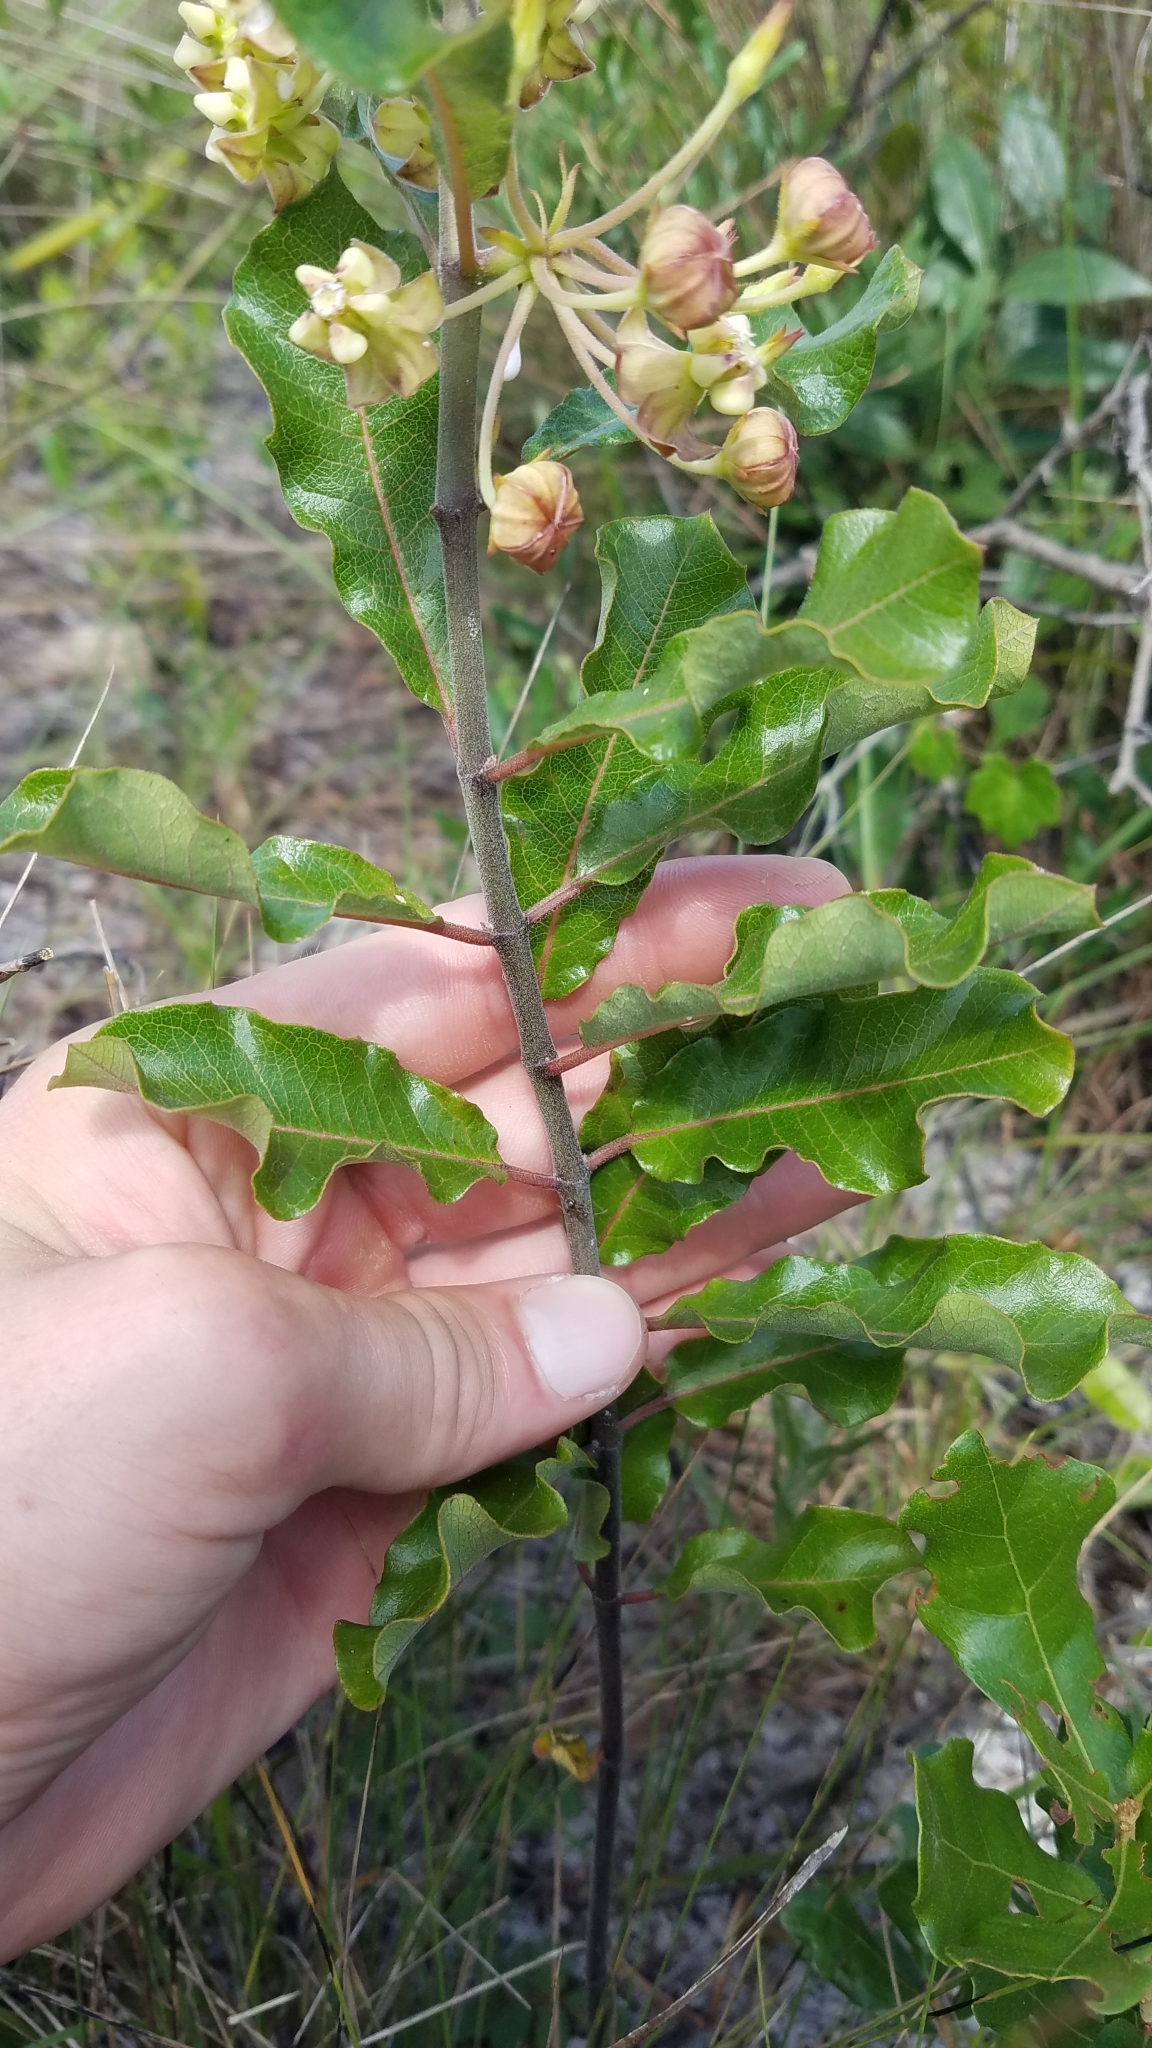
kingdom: Plantae
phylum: Tracheophyta
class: Magnoliopsida
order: Gentianales
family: Apocynaceae
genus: Asclepias
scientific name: Asclepias tomentosa
